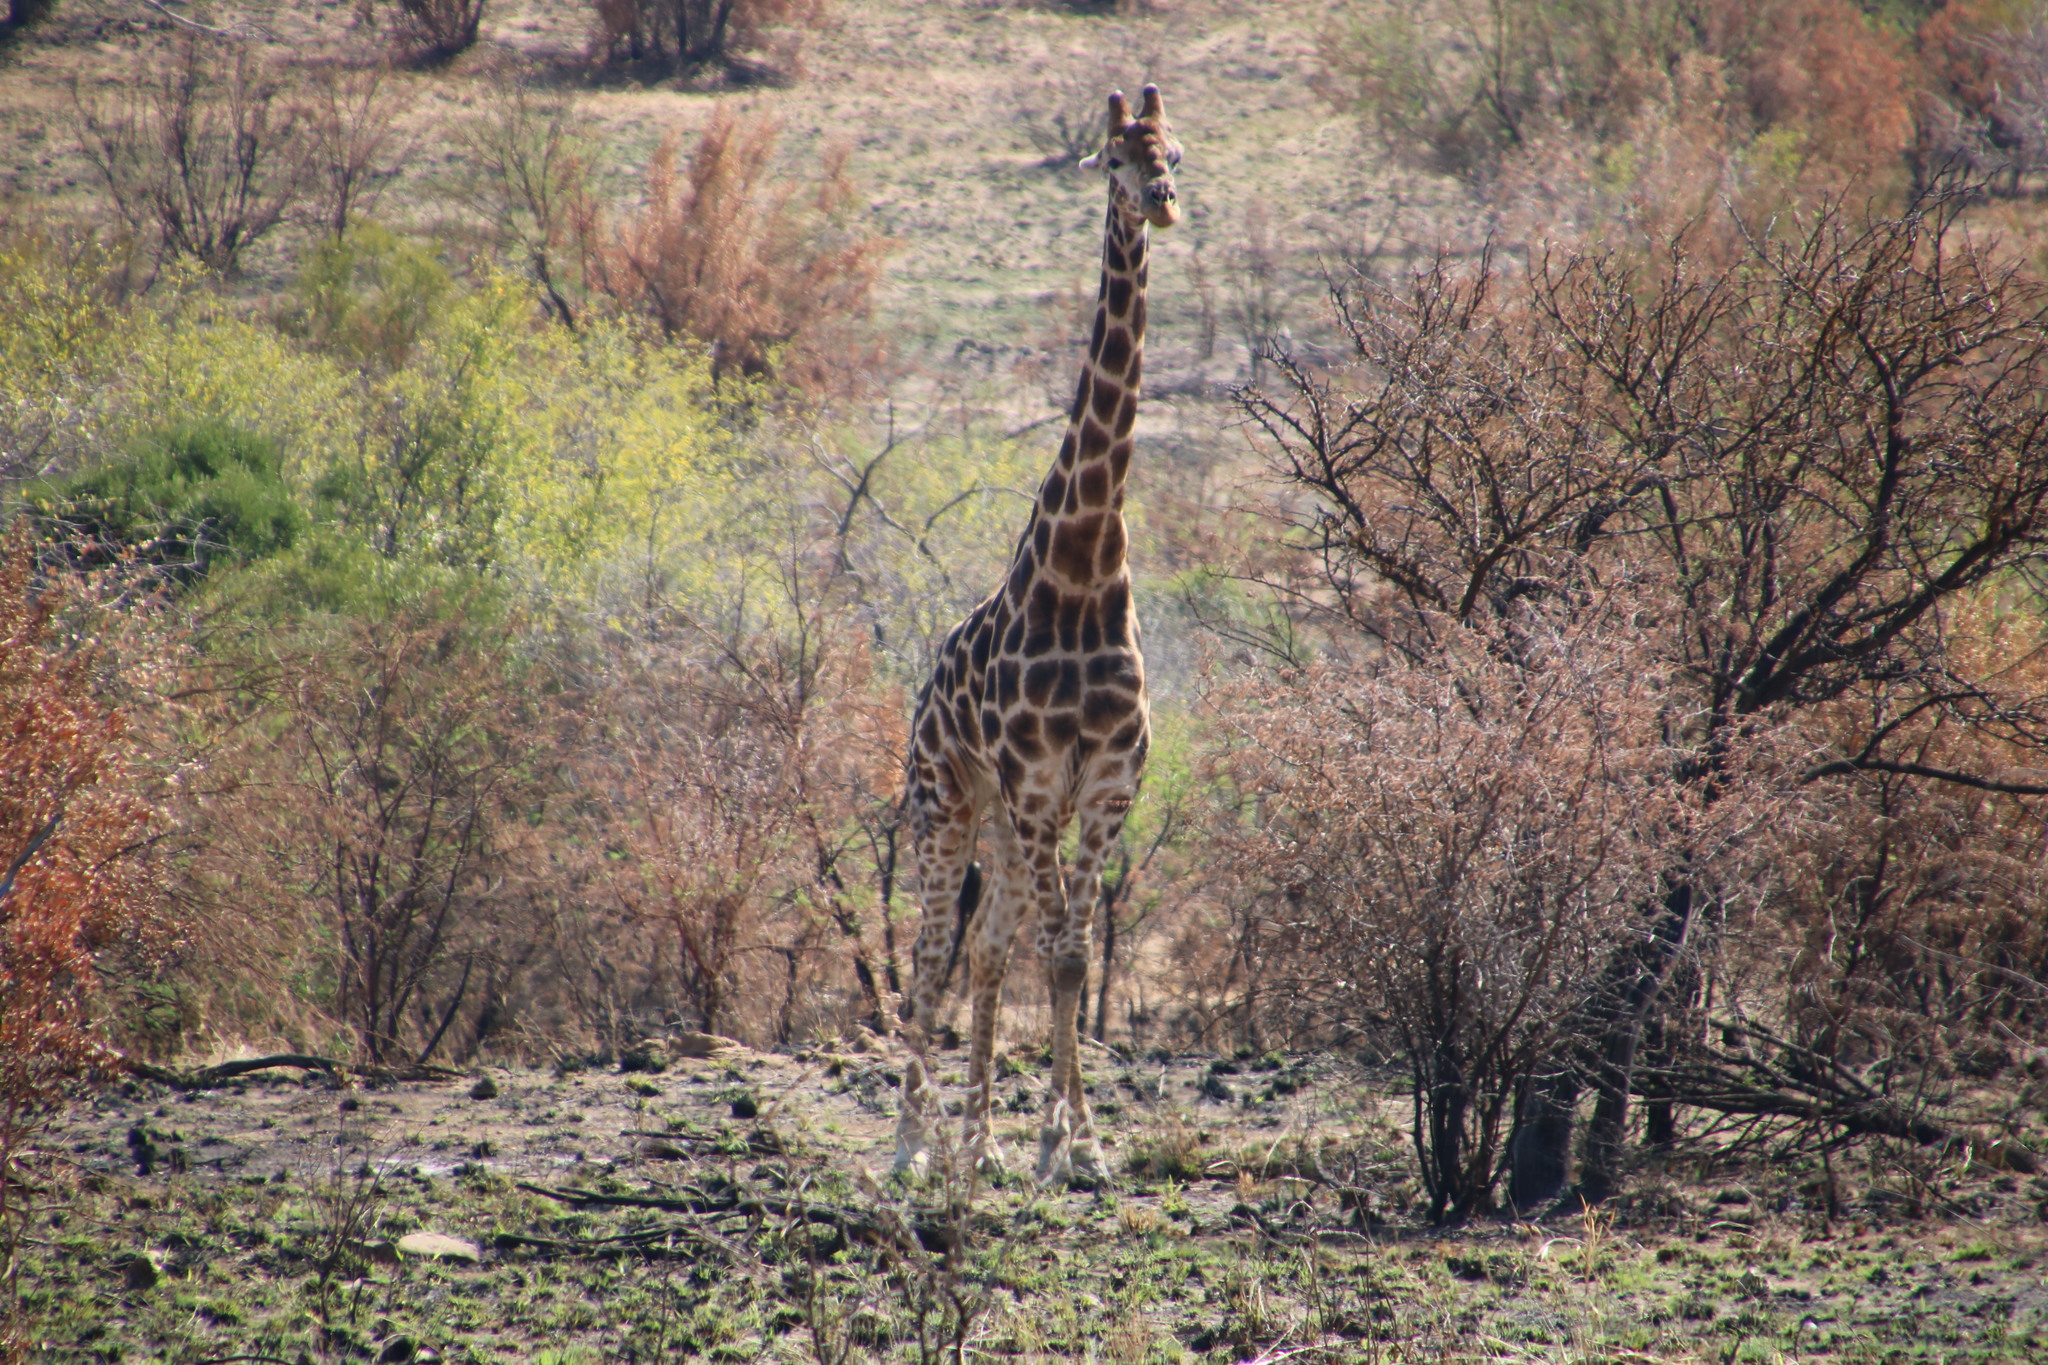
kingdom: Animalia
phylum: Chordata
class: Mammalia
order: Artiodactyla
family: Giraffidae
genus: Giraffa
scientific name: Giraffa giraffa
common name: Southern giraffe
